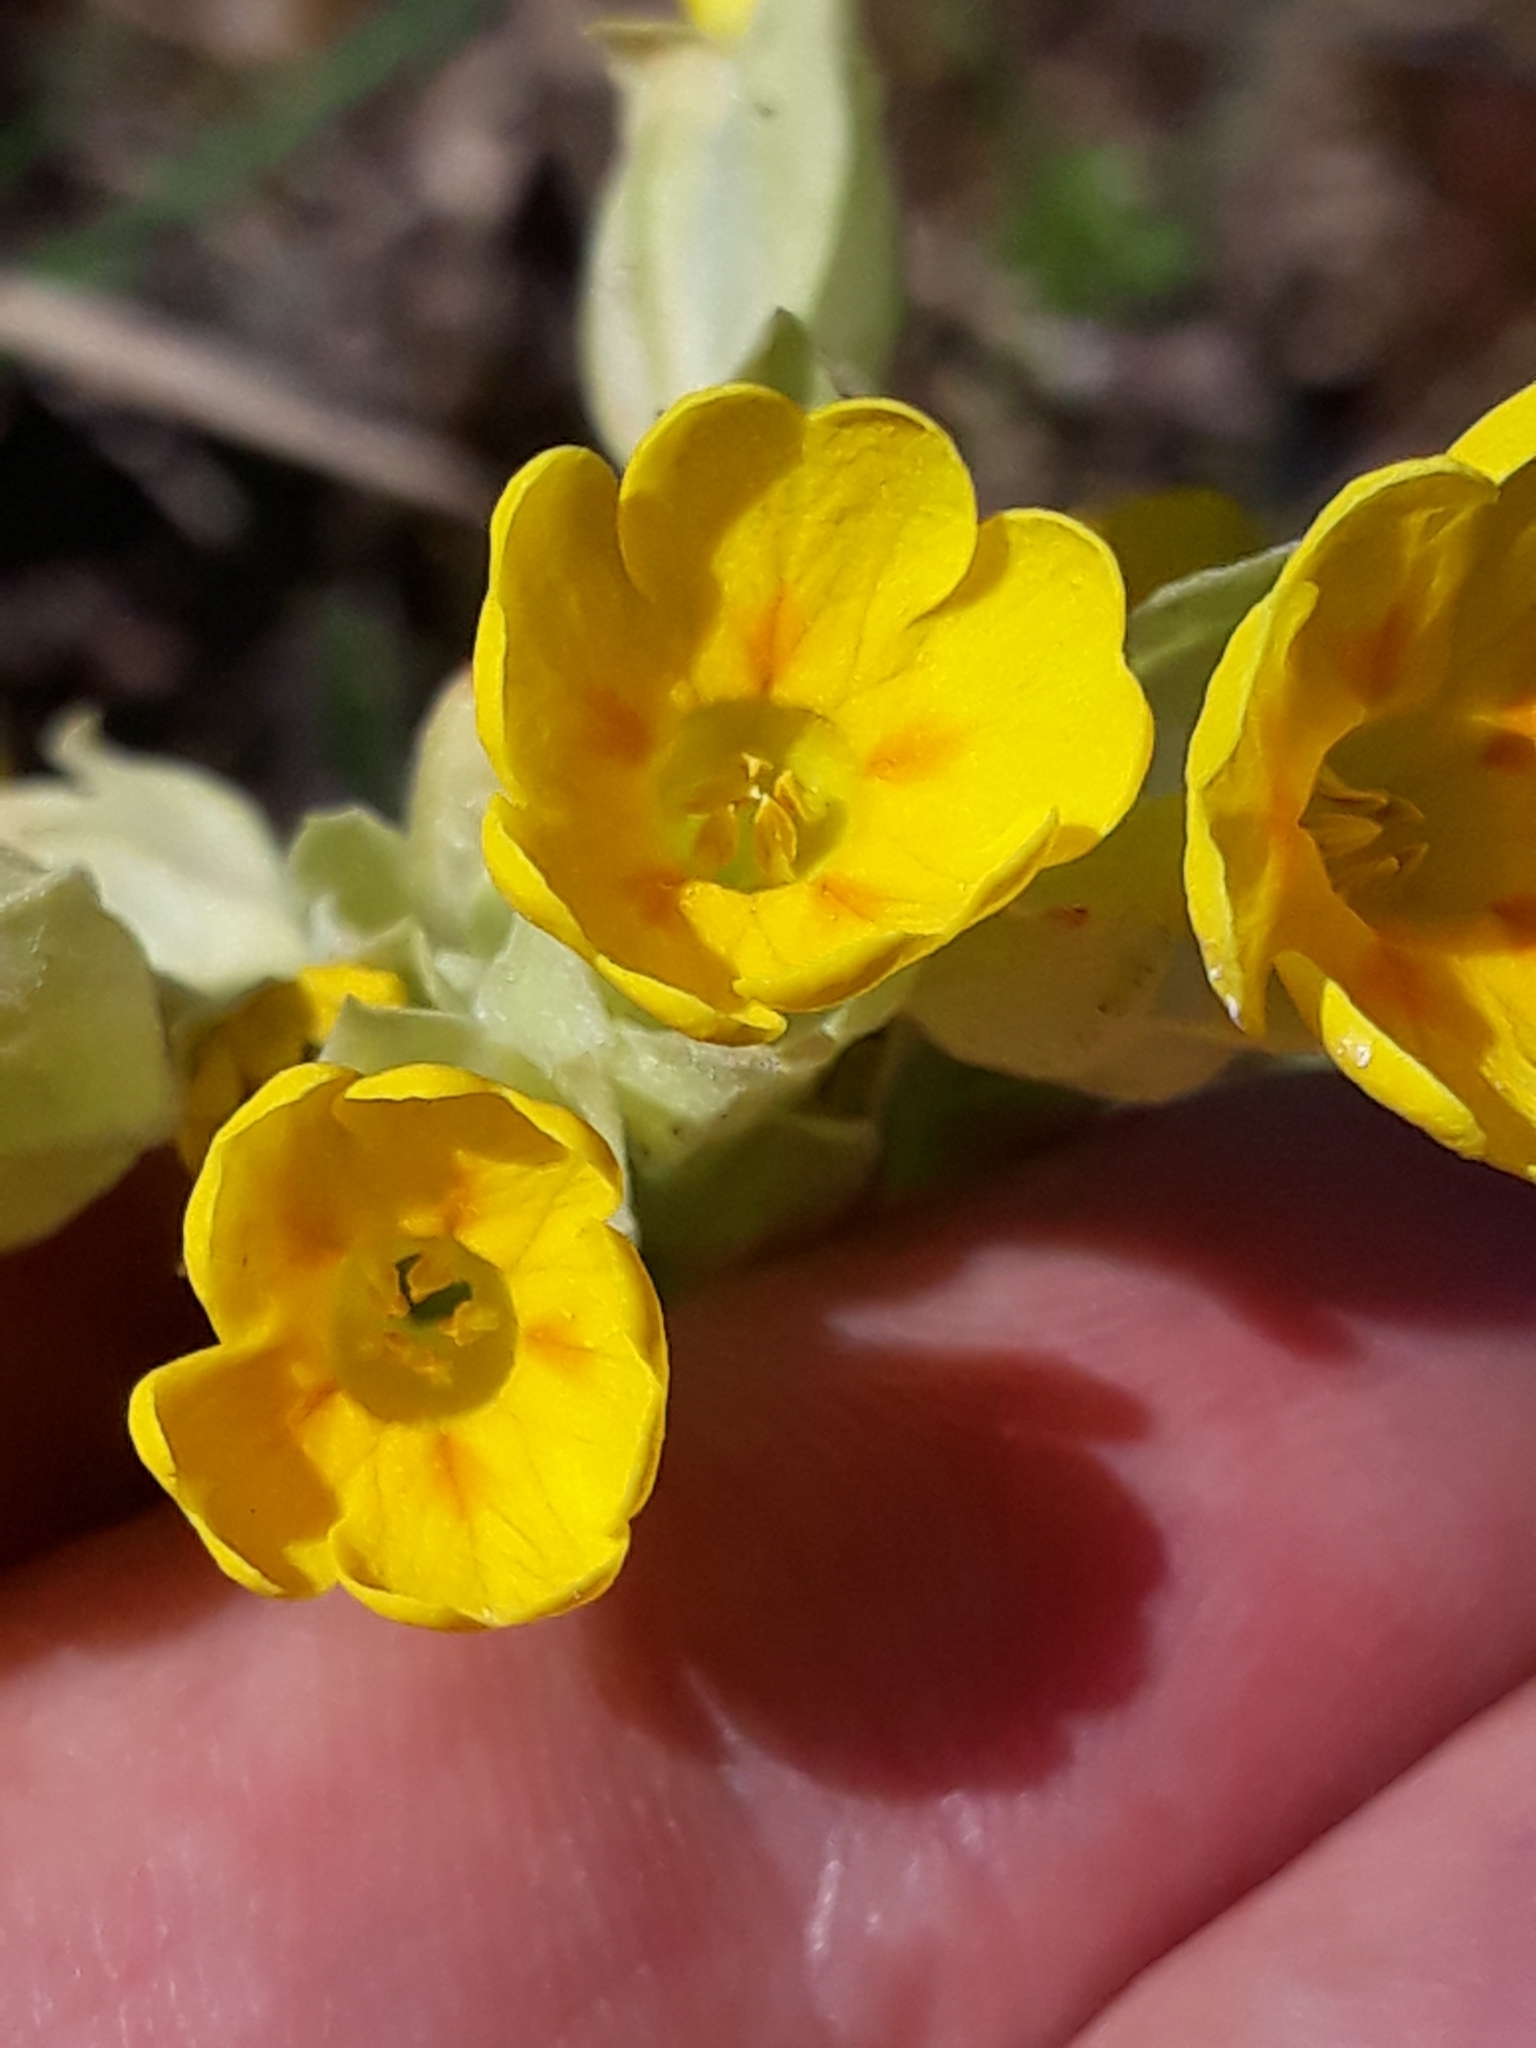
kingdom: Plantae
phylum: Tracheophyta
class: Magnoliopsida
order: Ericales
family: Primulaceae
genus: Primula
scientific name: Primula veris
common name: Cowslip
